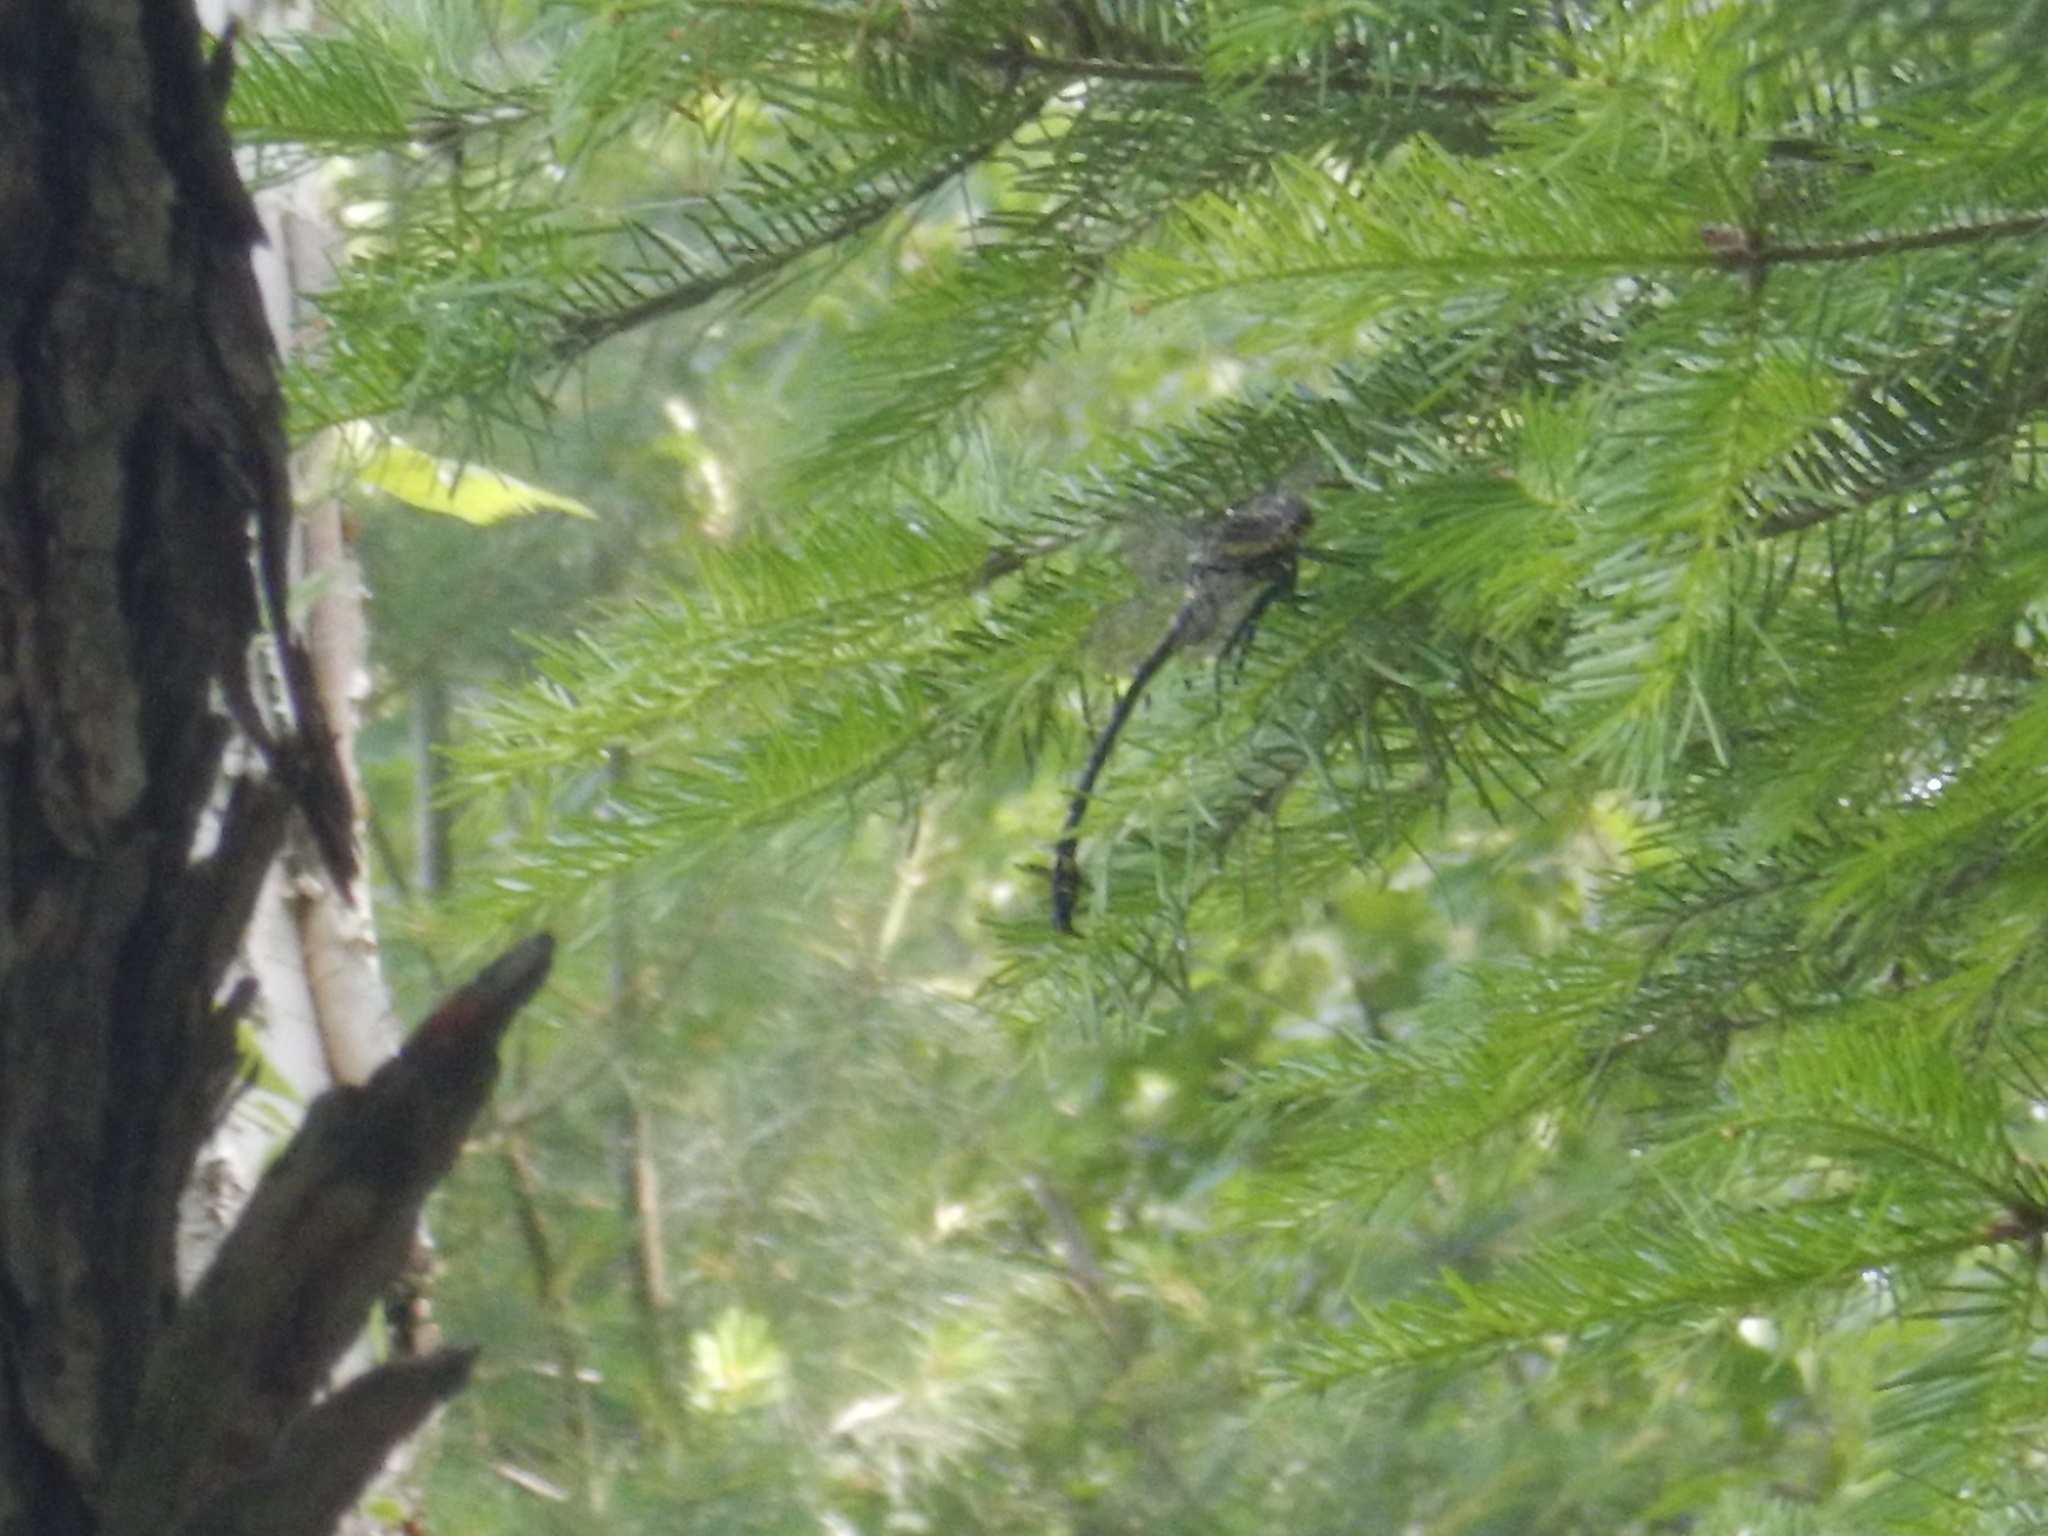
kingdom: Animalia
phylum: Arthropoda
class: Insecta
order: Odonata
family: Gomphidae
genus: Hagenius
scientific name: Hagenius brevistylus
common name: Dragonhunter
